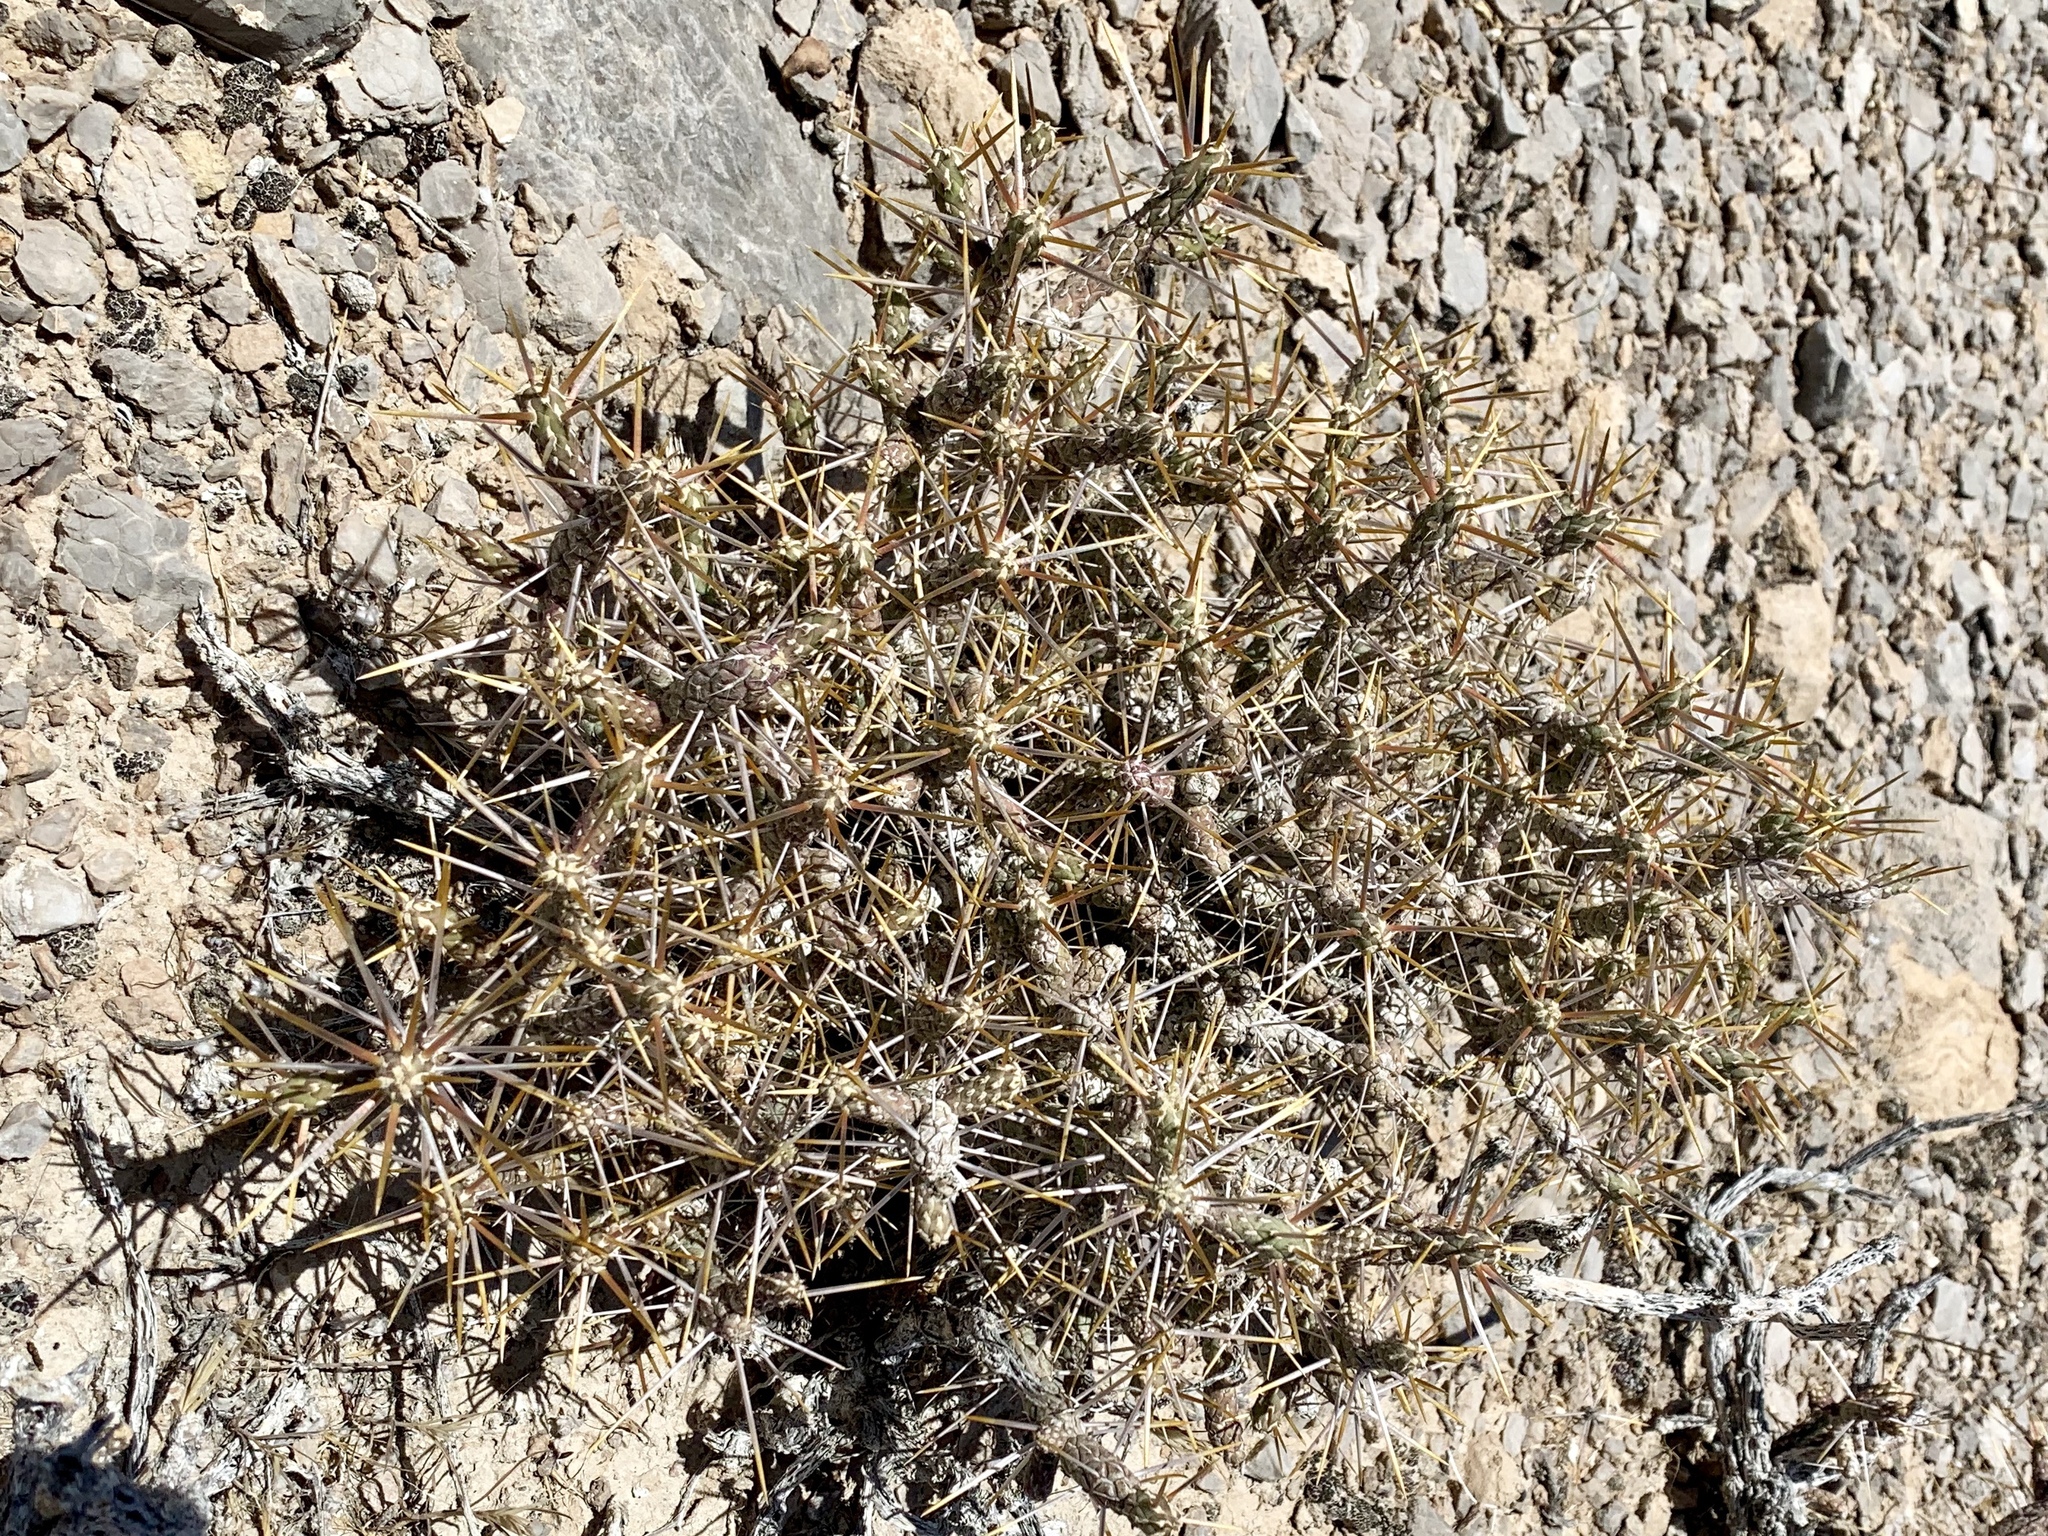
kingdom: Plantae
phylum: Tracheophyta
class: Magnoliopsida
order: Caryophyllales
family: Cactaceae
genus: Cylindropuntia
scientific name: Cylindropuntia ramosissima
